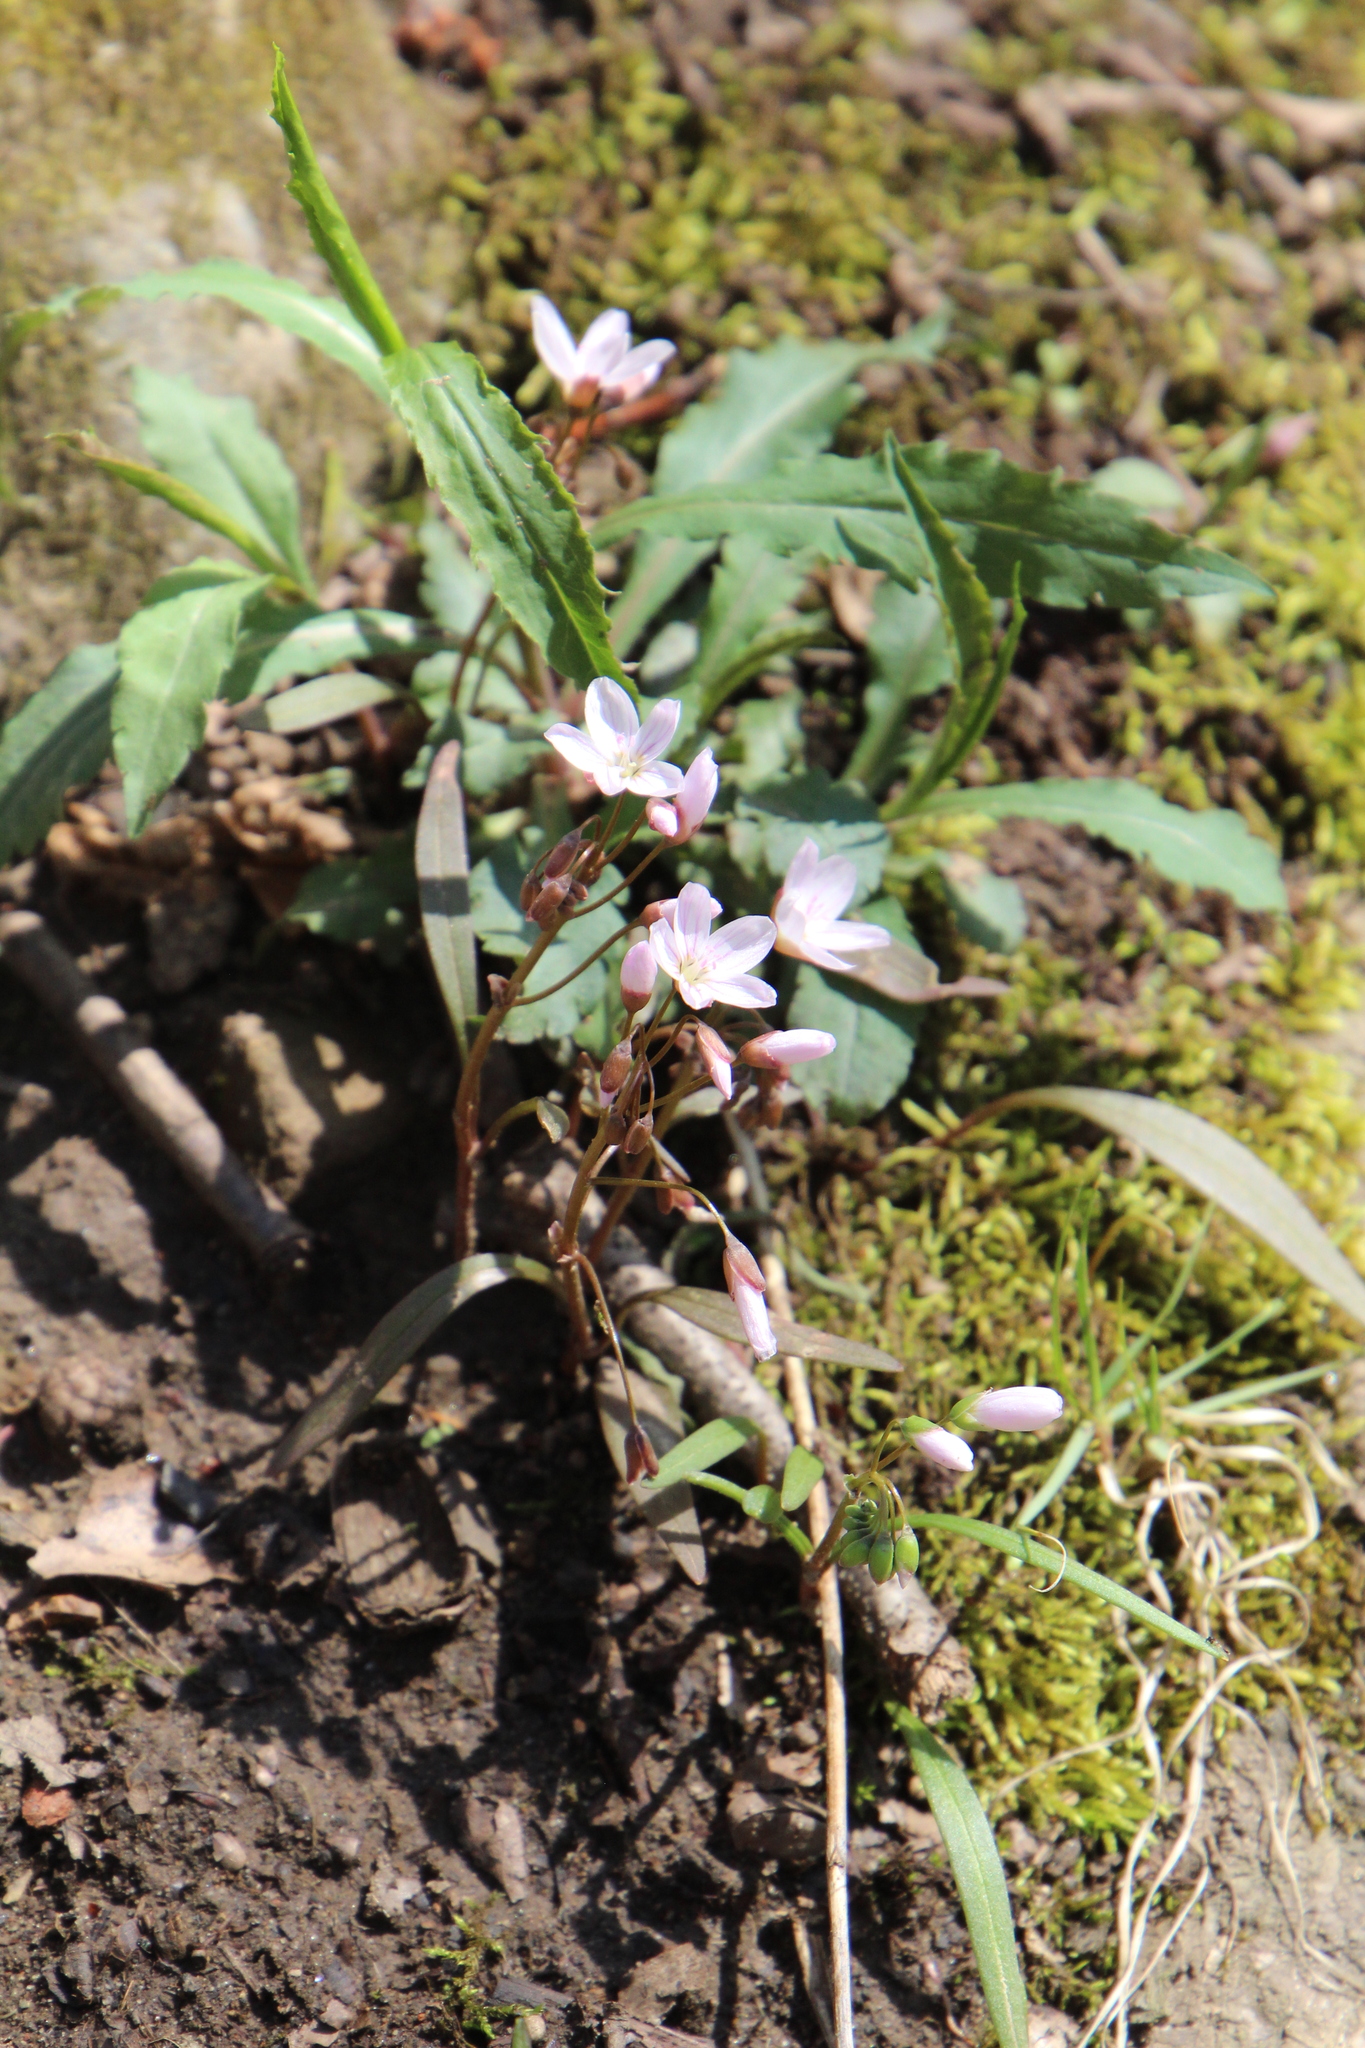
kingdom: Plantae
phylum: Tracheophyta
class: Magnoliopsida
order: Caryophyllales
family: Montiaceae
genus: Claytonia
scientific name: Claytonia virginica
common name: Virginia springbeauty
